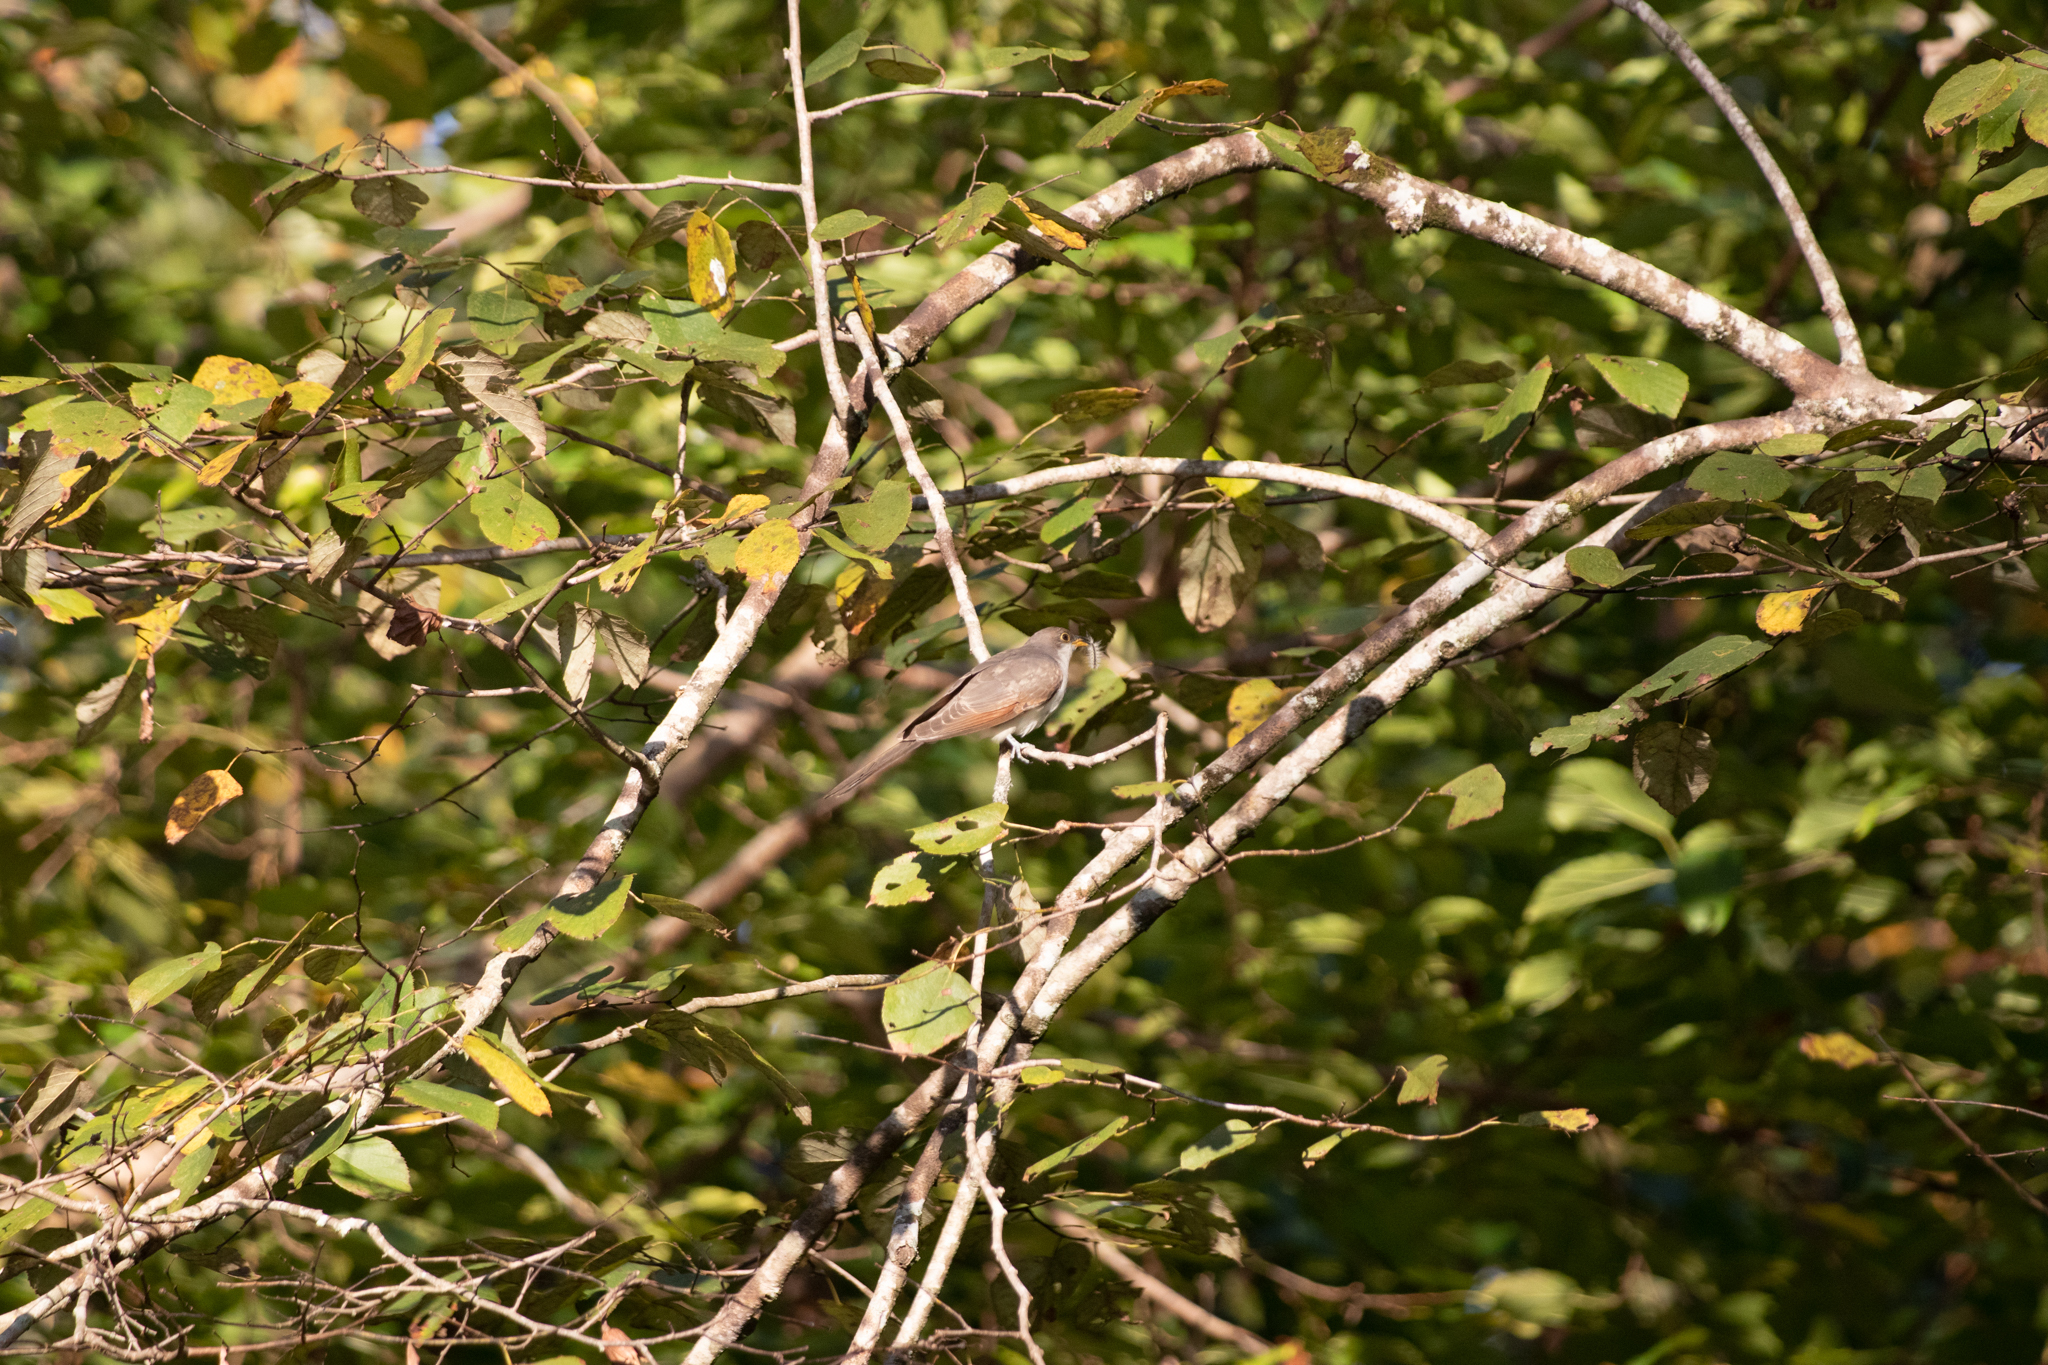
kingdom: Animalia
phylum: Chordata
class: Aves
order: Cuculiformes
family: Cuculidae
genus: Coccyzus
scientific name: Coccyzus americanus
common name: Yellow-billed cuckoo
